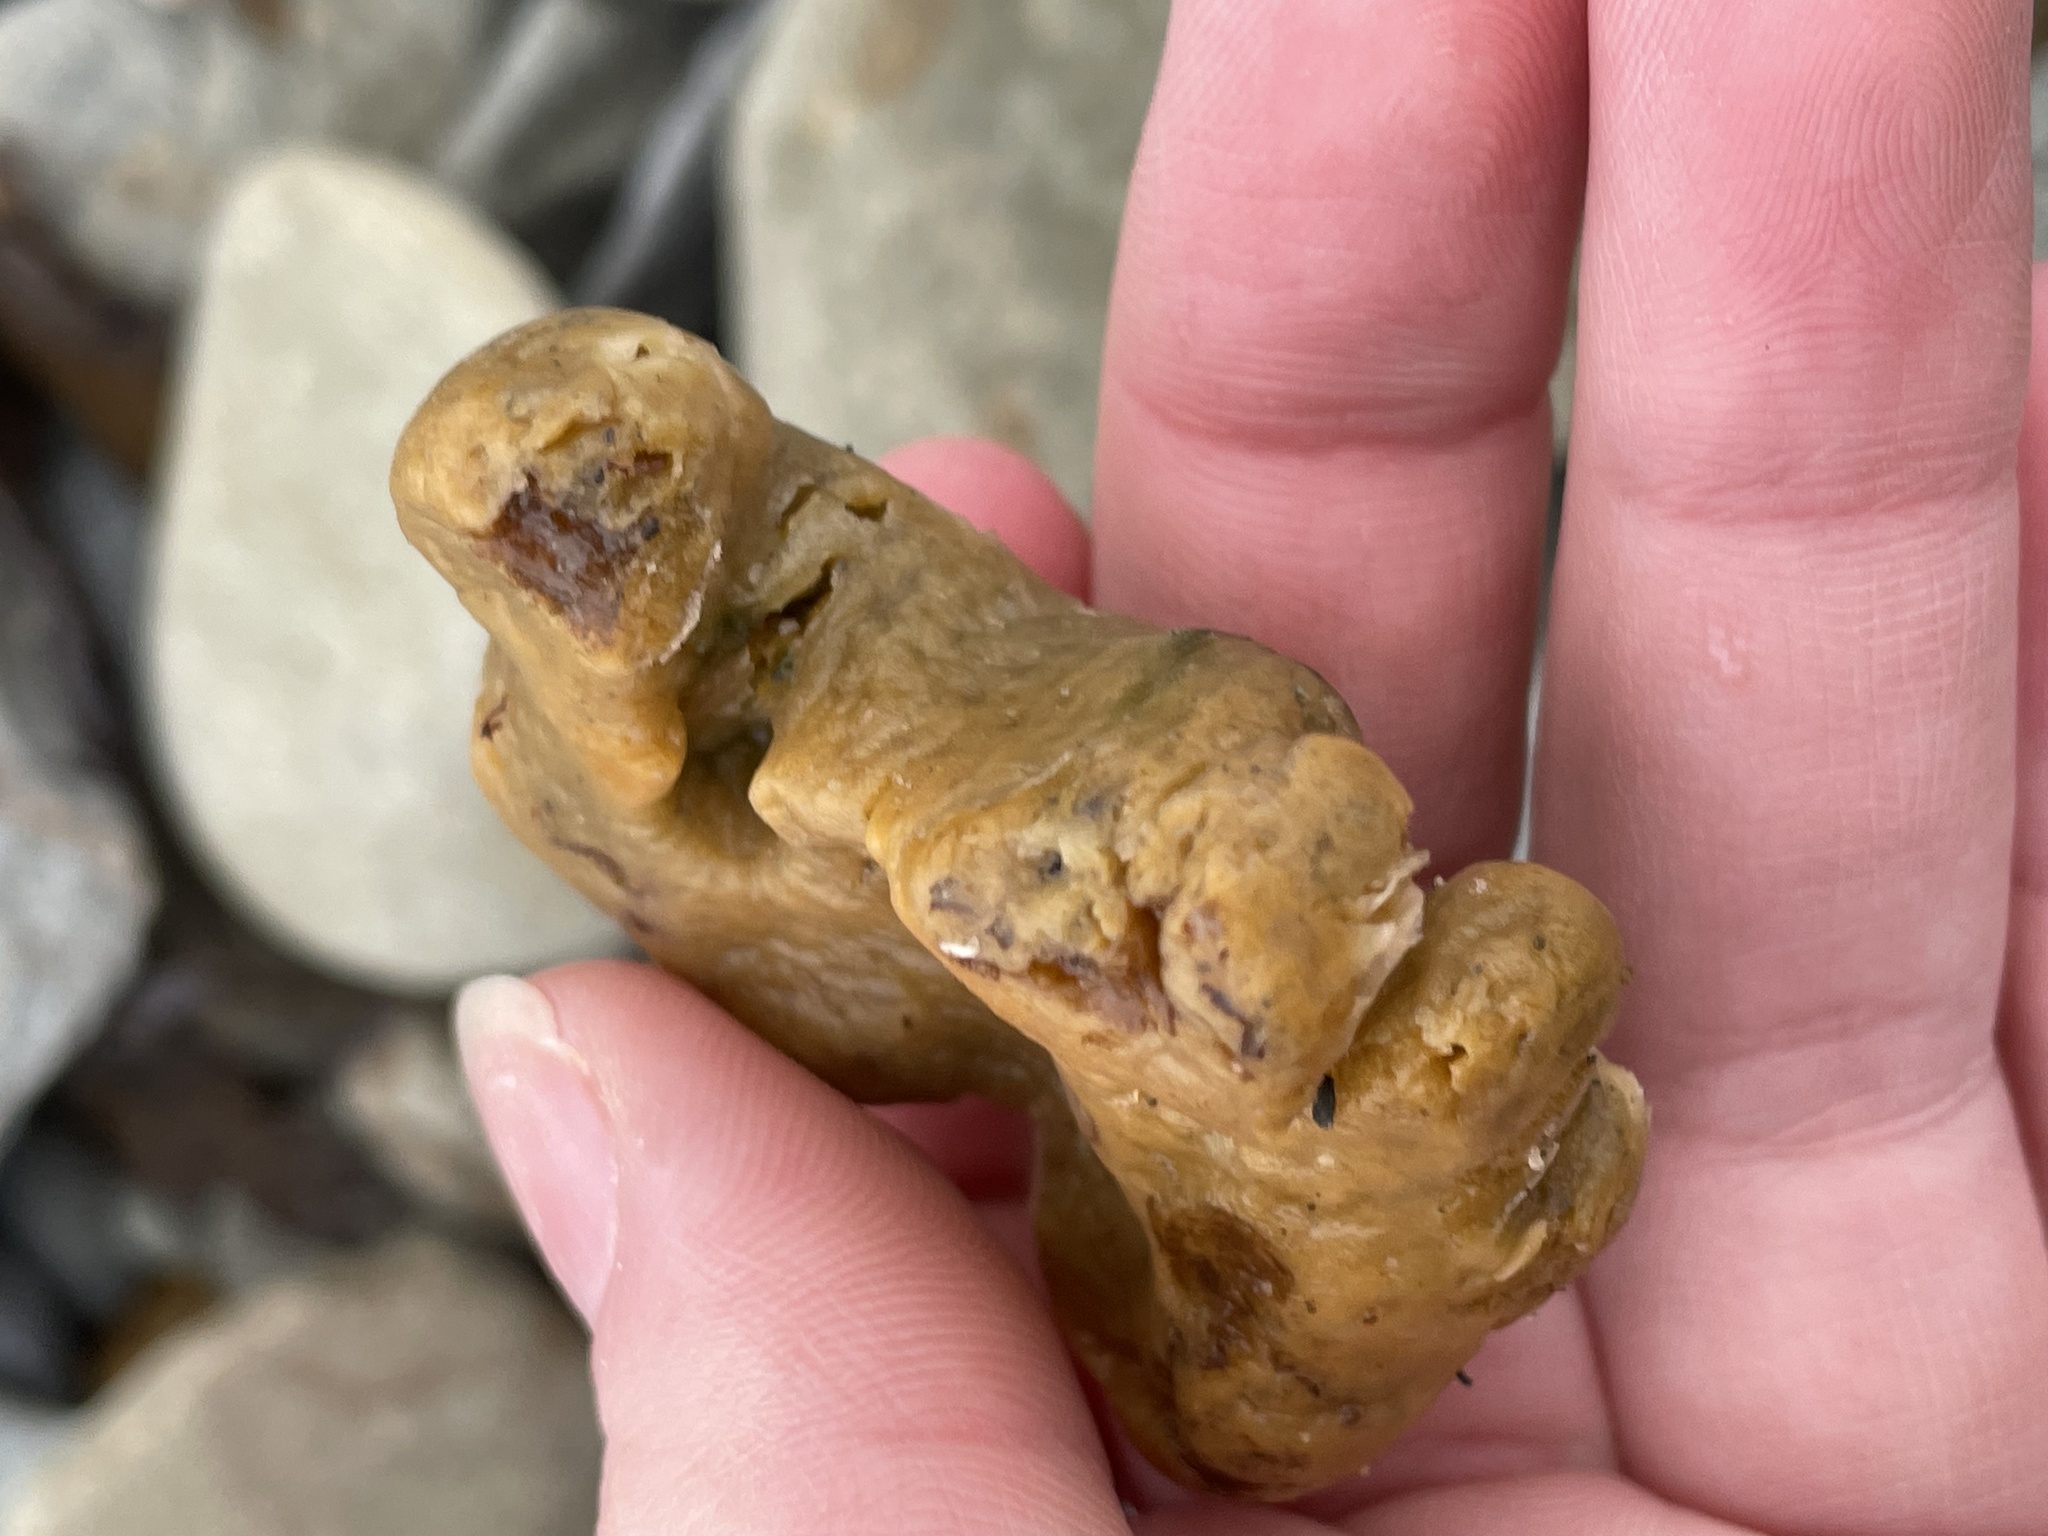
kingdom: Animalia
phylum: Porifera
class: Demospongiae
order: Suberitida
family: Halichondriidae
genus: Halichondria
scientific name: Halichondria panicea
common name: Breadcrumb sponge
